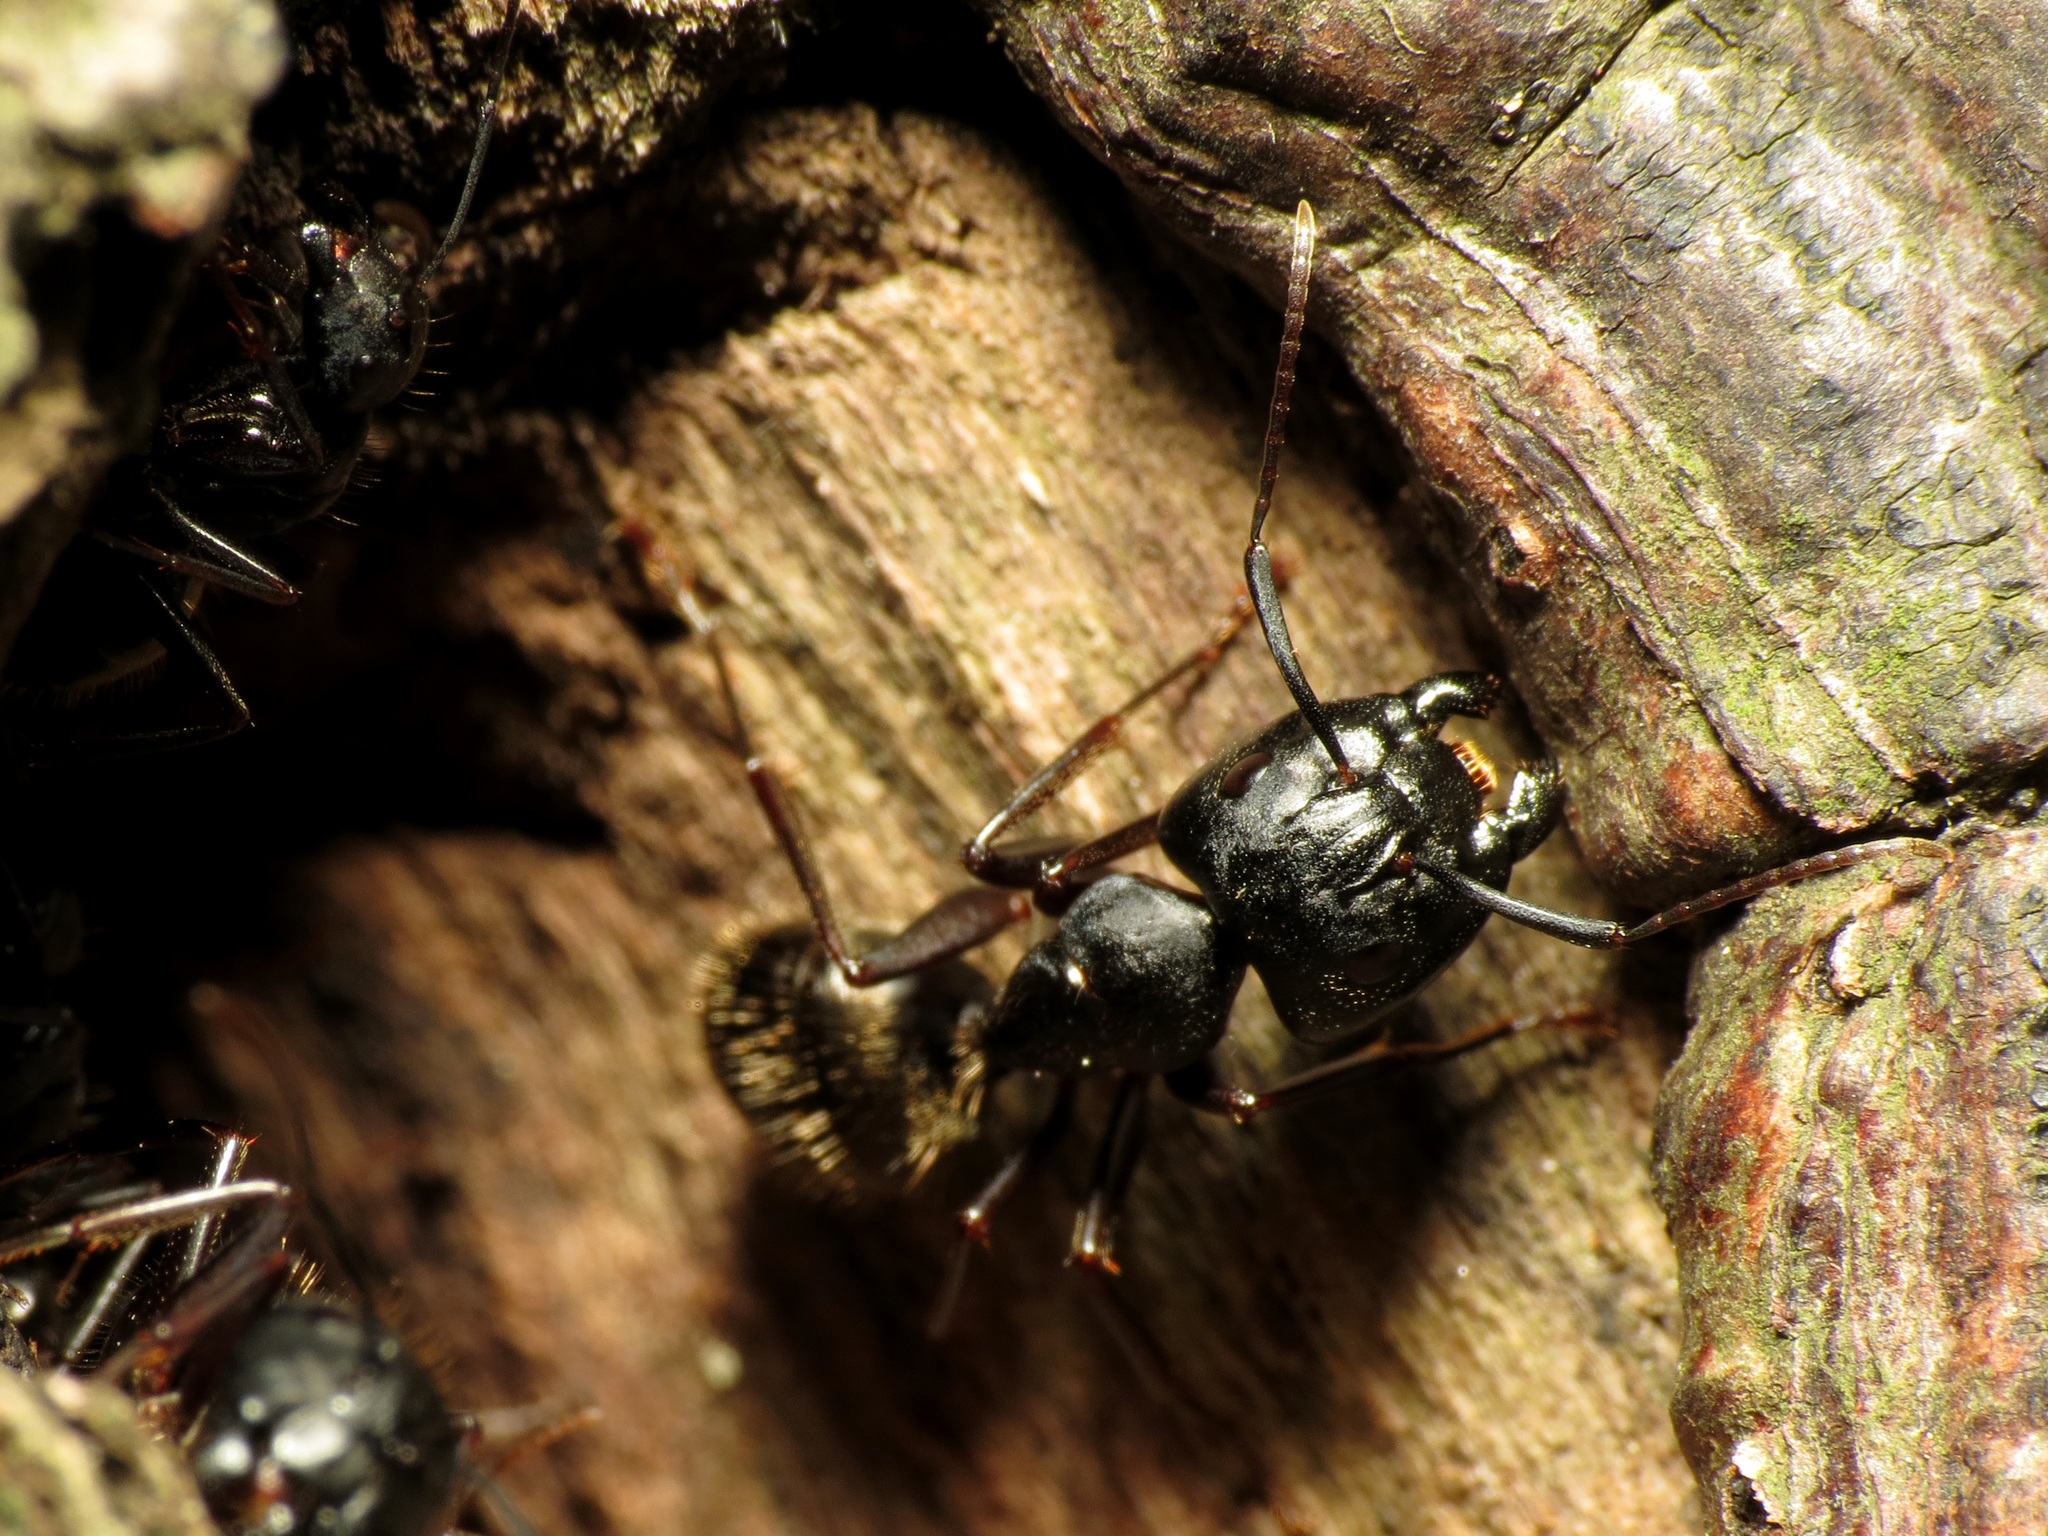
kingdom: Animalia
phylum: Arthropoda
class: Insecta
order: Hymenoptera
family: Formicidae
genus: Camponotus
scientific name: Camponotus pennsylvanicus
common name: Black carpenter ant
